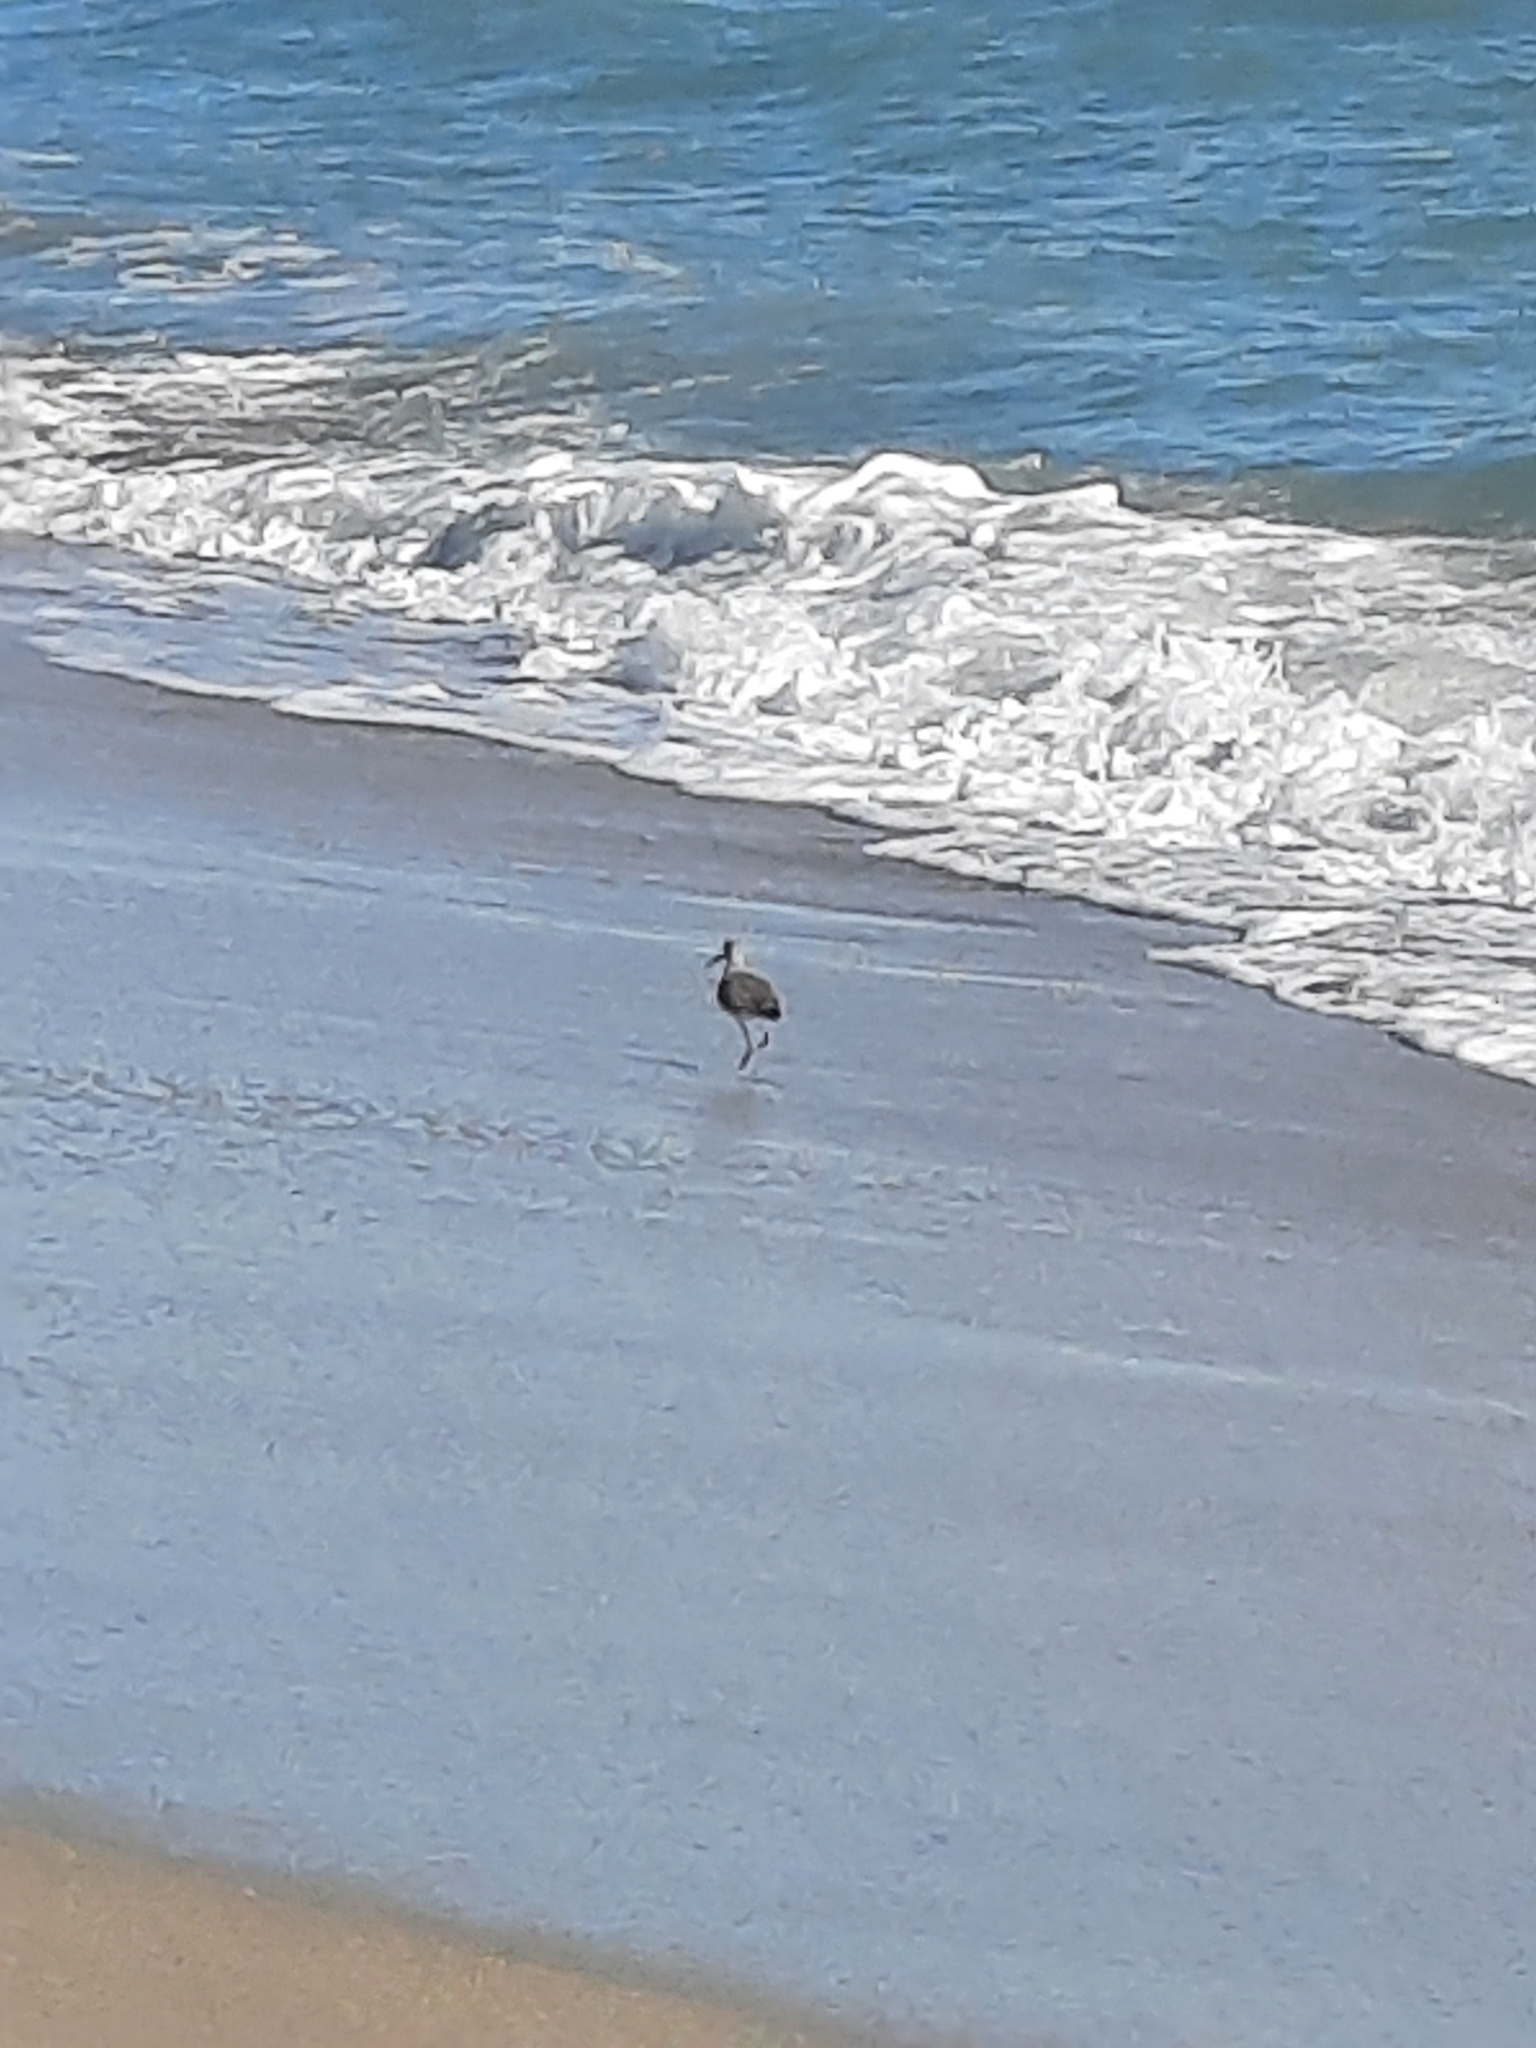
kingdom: Animalia
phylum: Chordata
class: Aves
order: Charadriiformes
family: Scolopacidae
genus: Tringa
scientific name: Tringa semipalmata
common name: Willet
